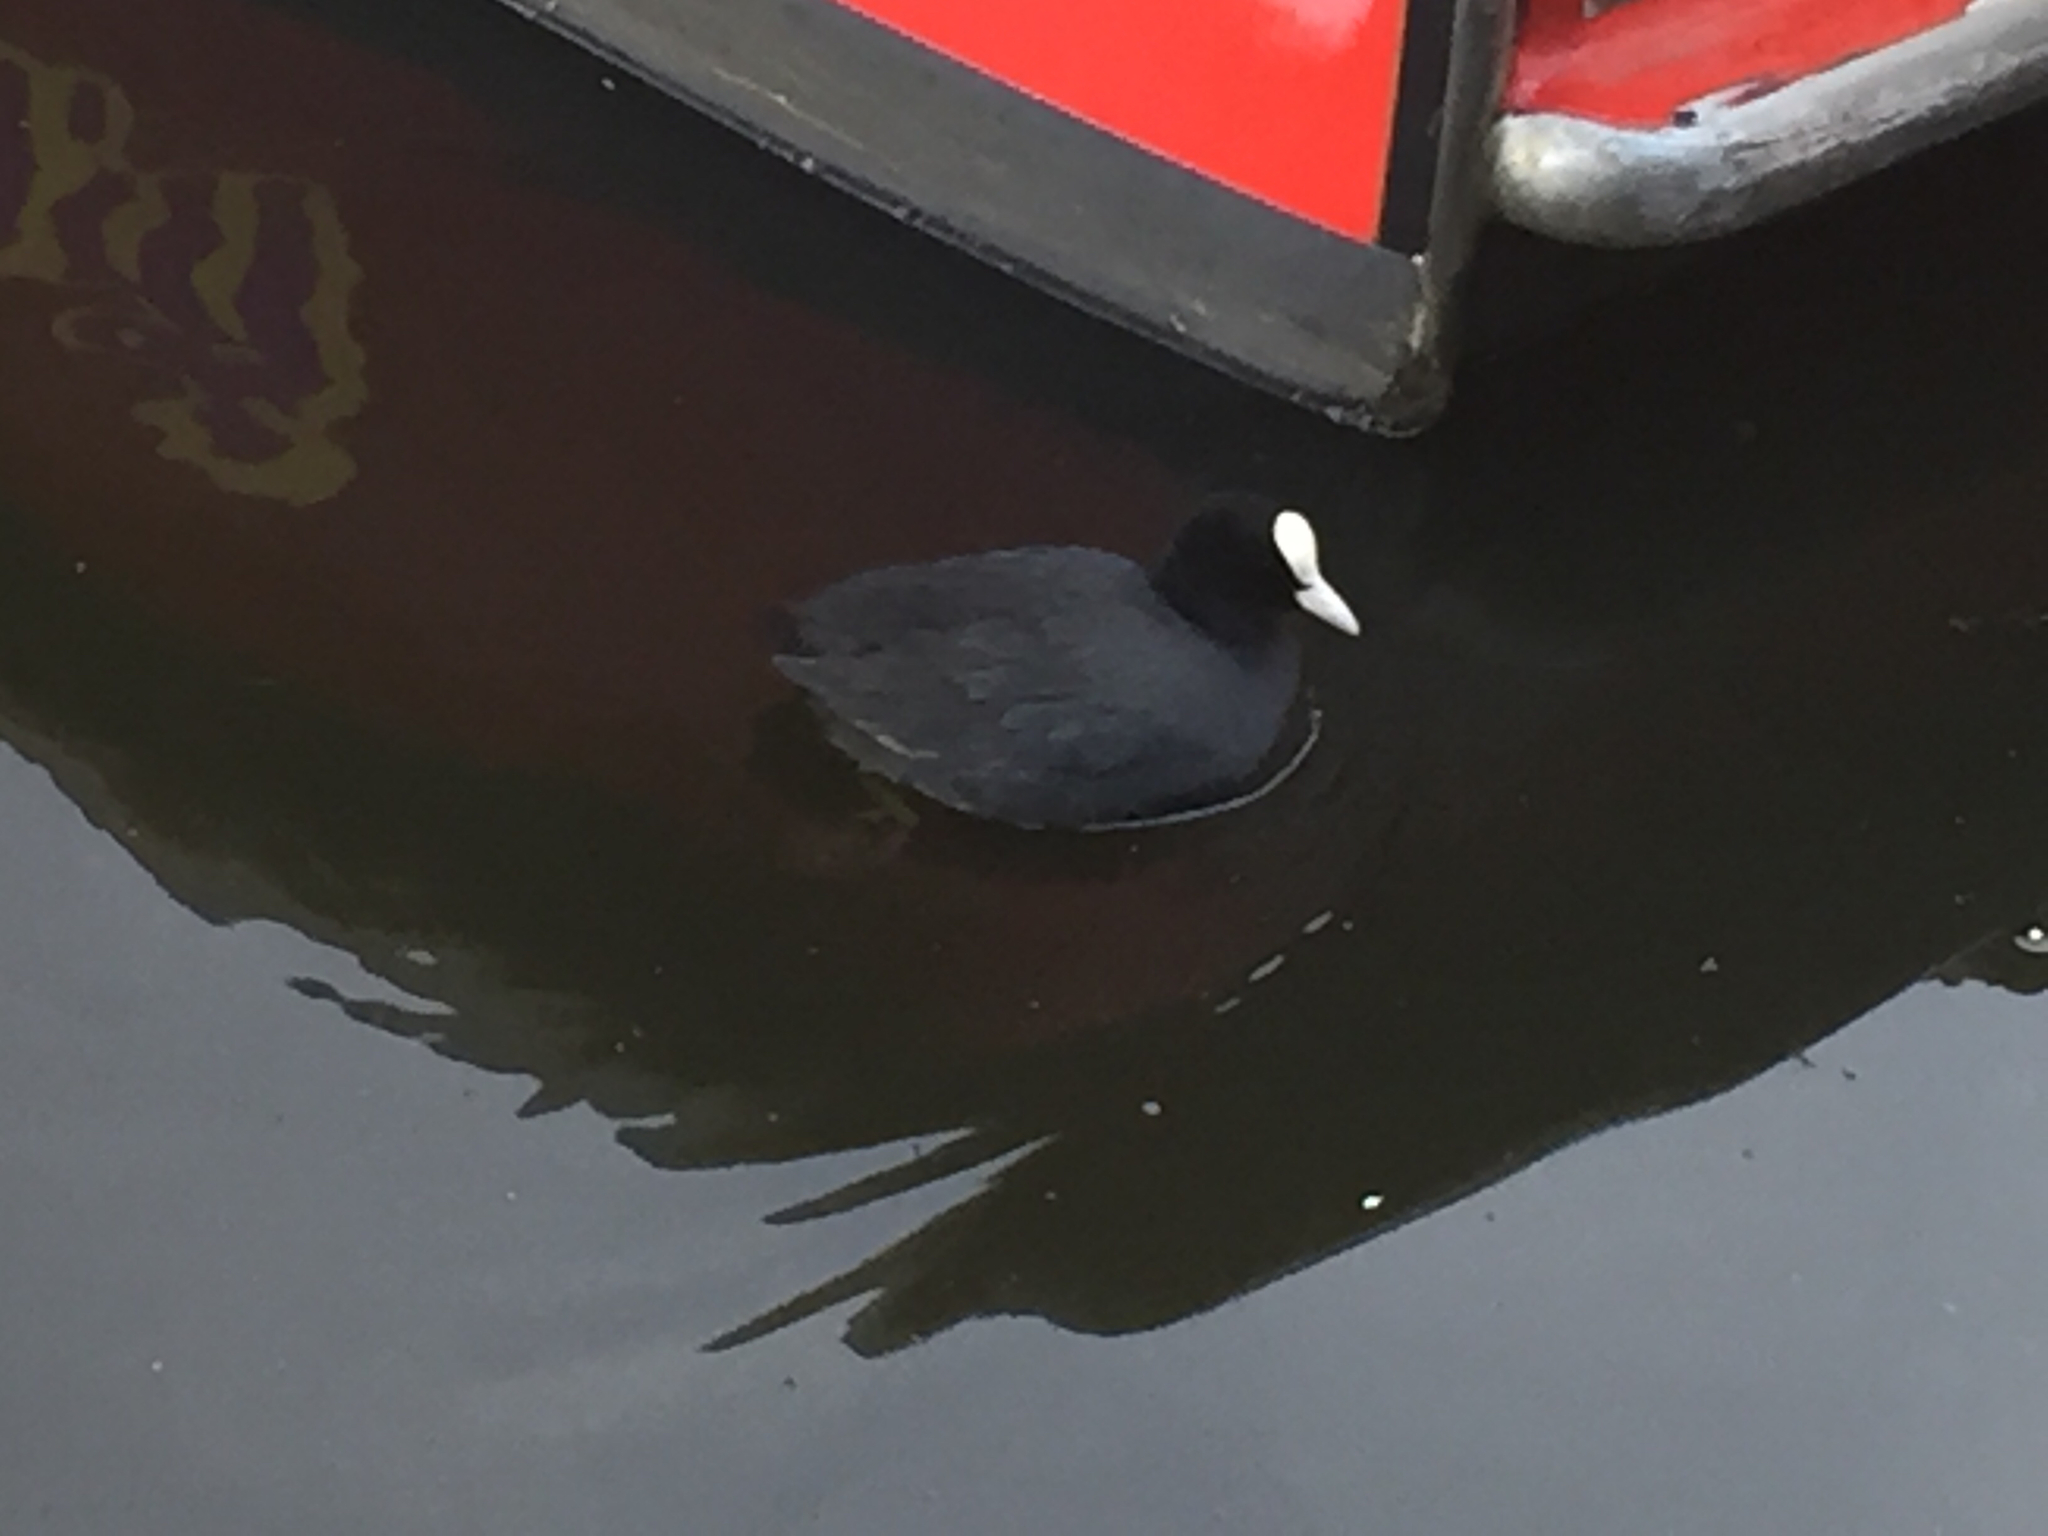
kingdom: Animalia
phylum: Chordata
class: Aves
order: Gruiformes
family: Rallidae
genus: Fulica
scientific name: Fulica atra
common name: Eurasian coot
